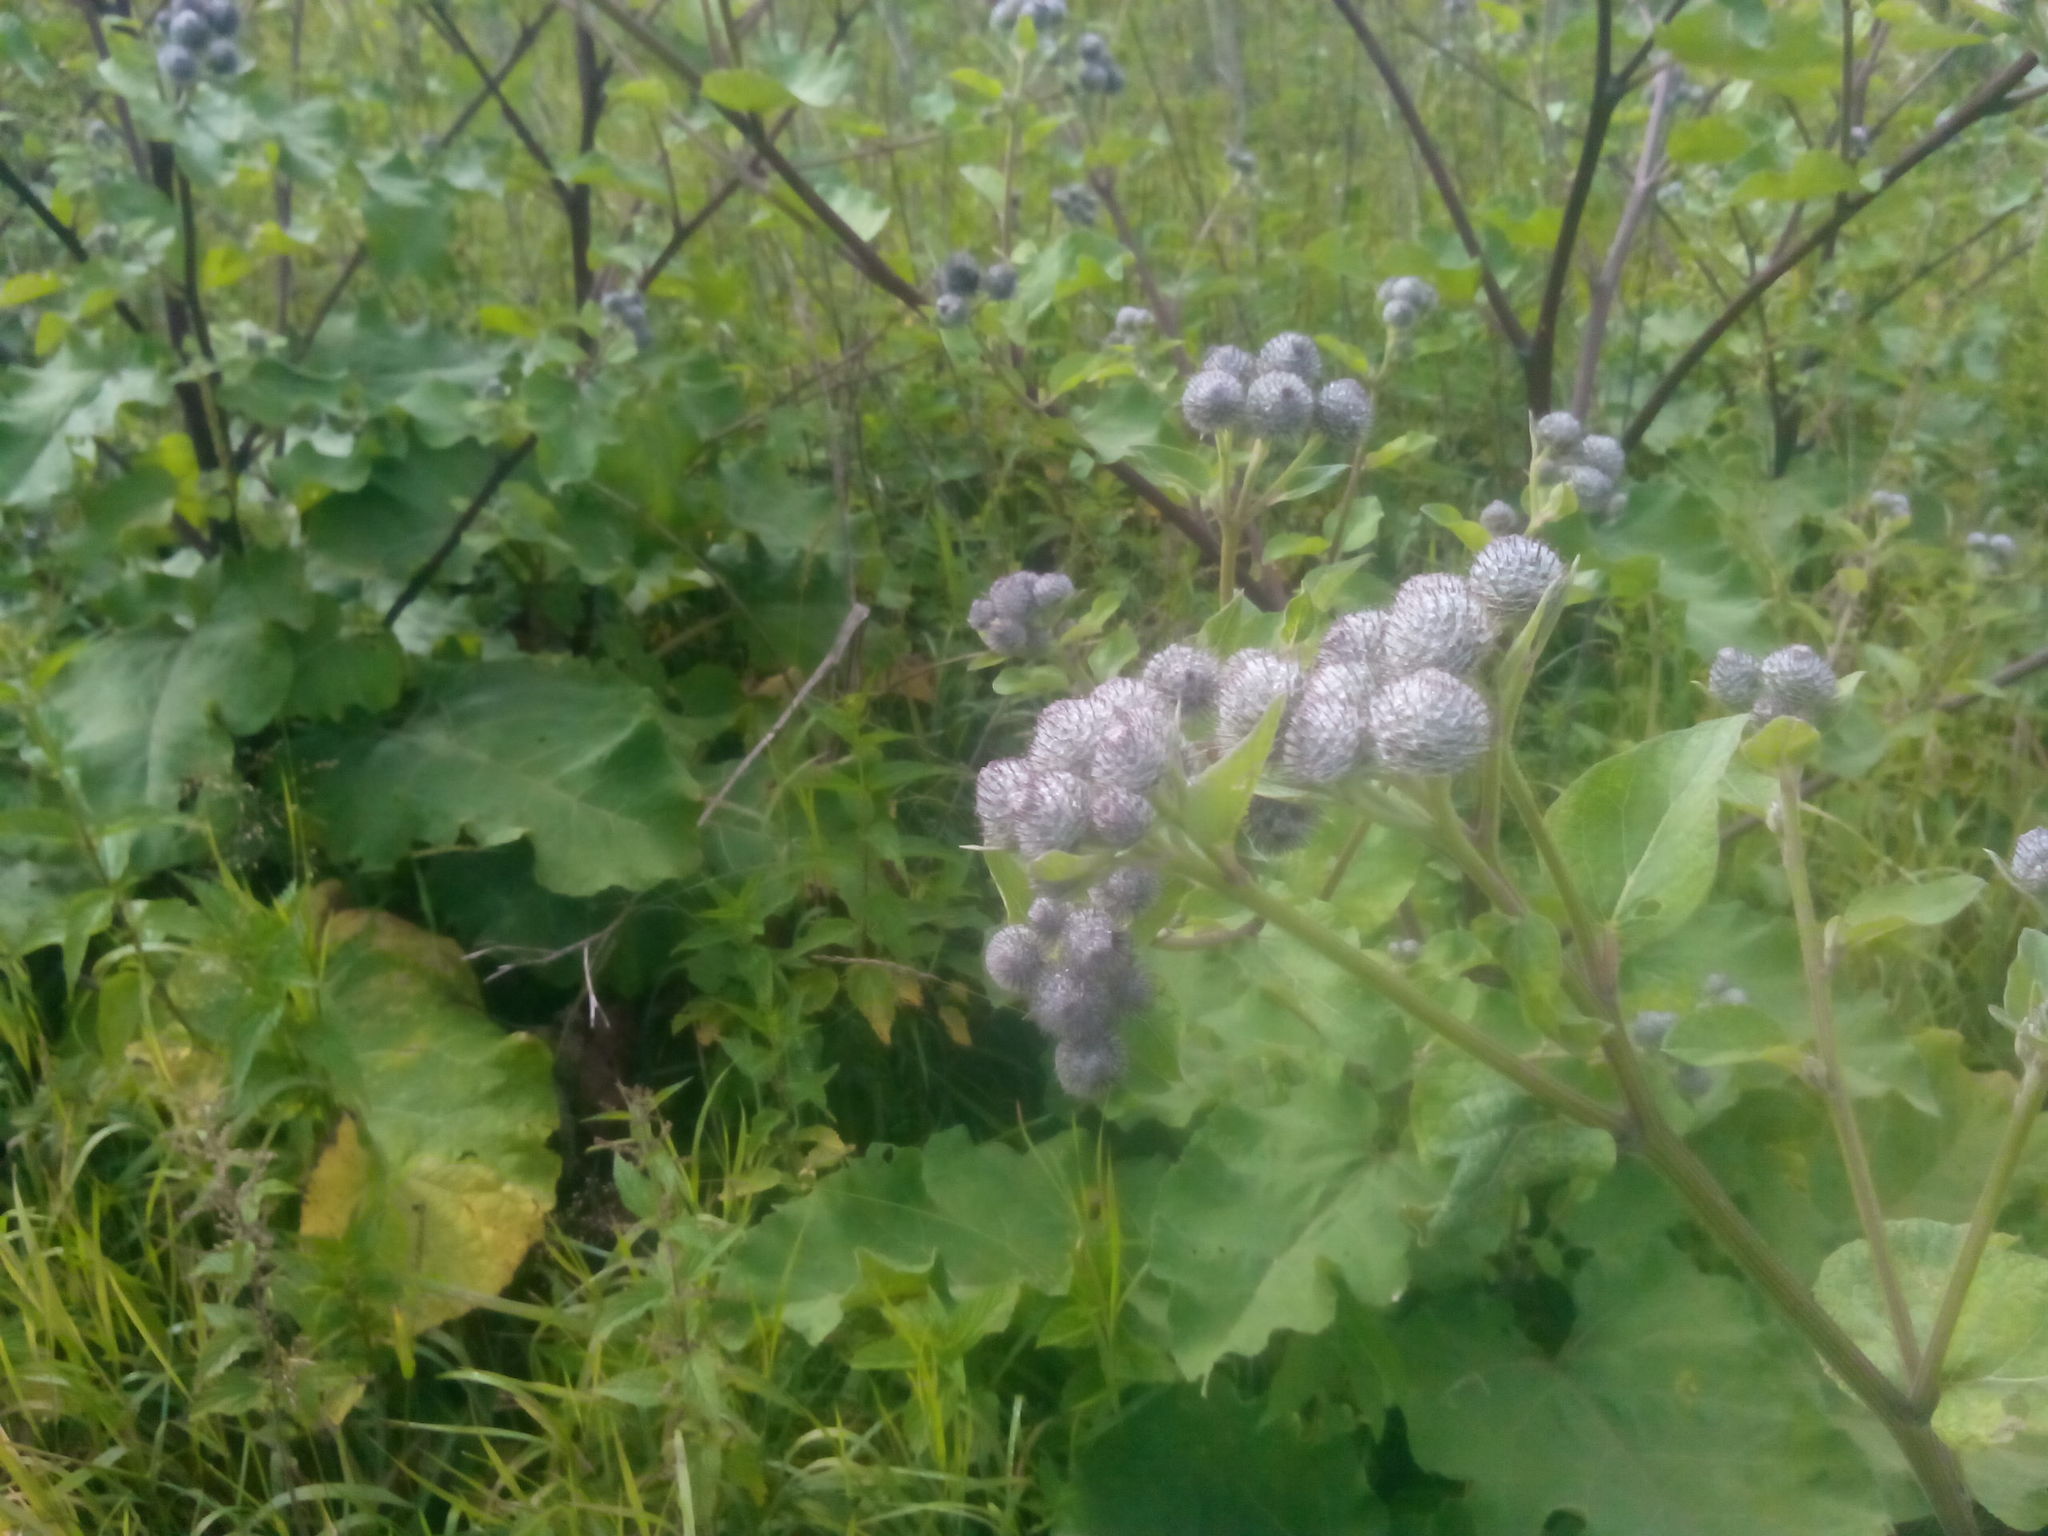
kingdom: Plantae
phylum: Tracheophyta
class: Magnoliopsida
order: Asterales
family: Asteraceae
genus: Arctium
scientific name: Arctium tomentosum
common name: Woolly burdock
